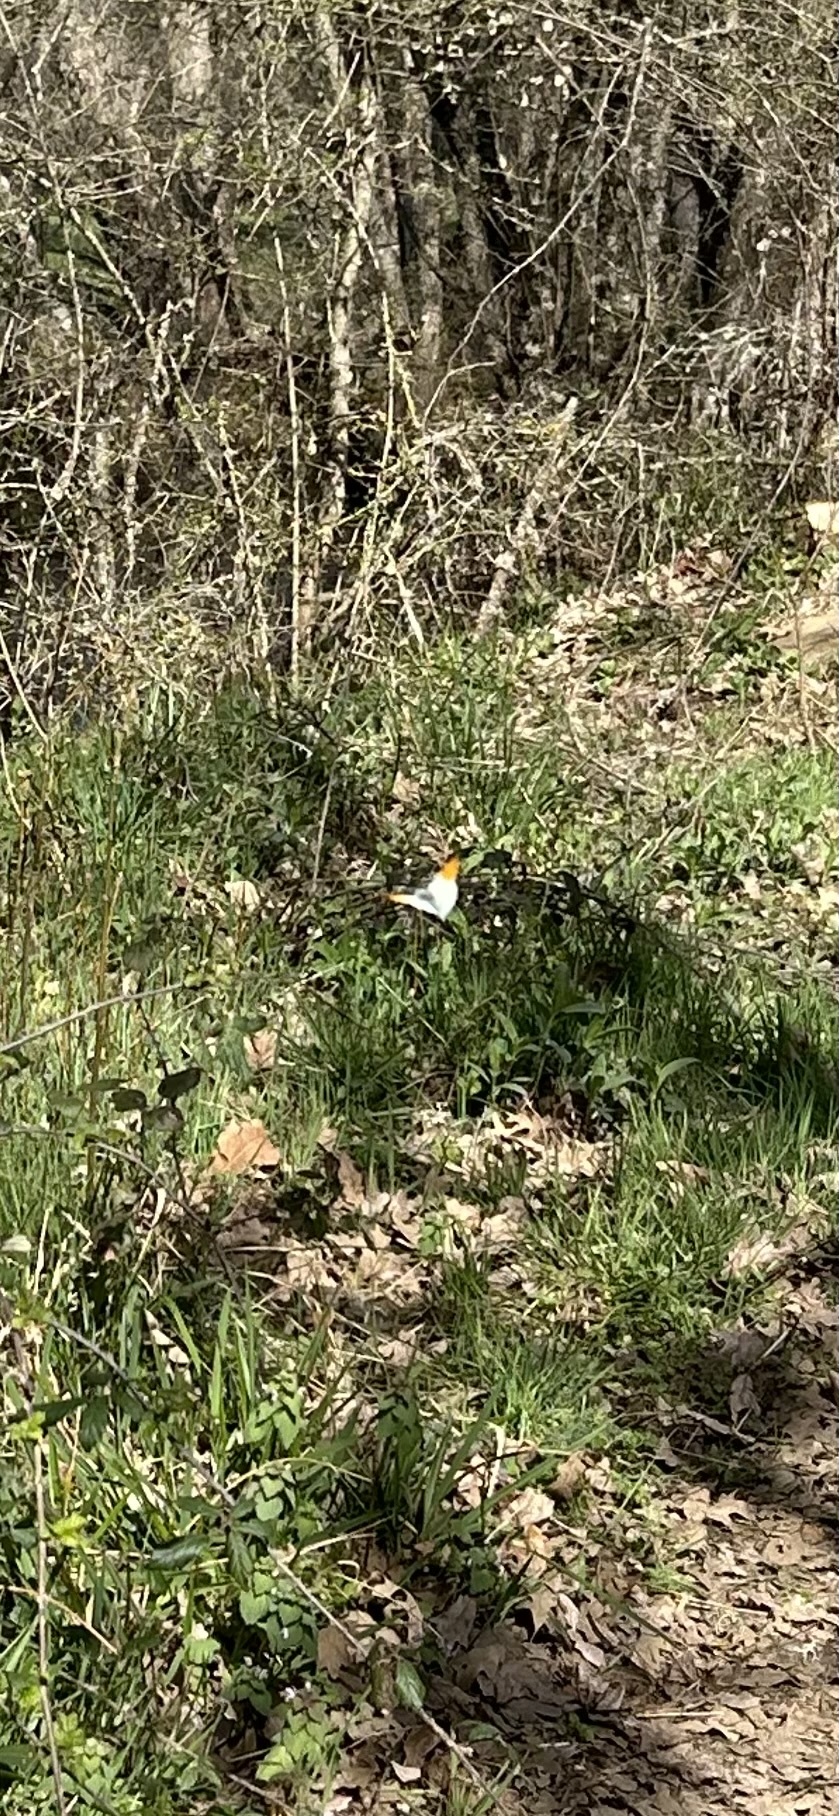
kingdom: Animalia
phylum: Arthropoda
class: Insecta
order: Lepidoptera
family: Pieridae
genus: Anthocharis
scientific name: Anthocharis cardamines
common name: Orange-tip
